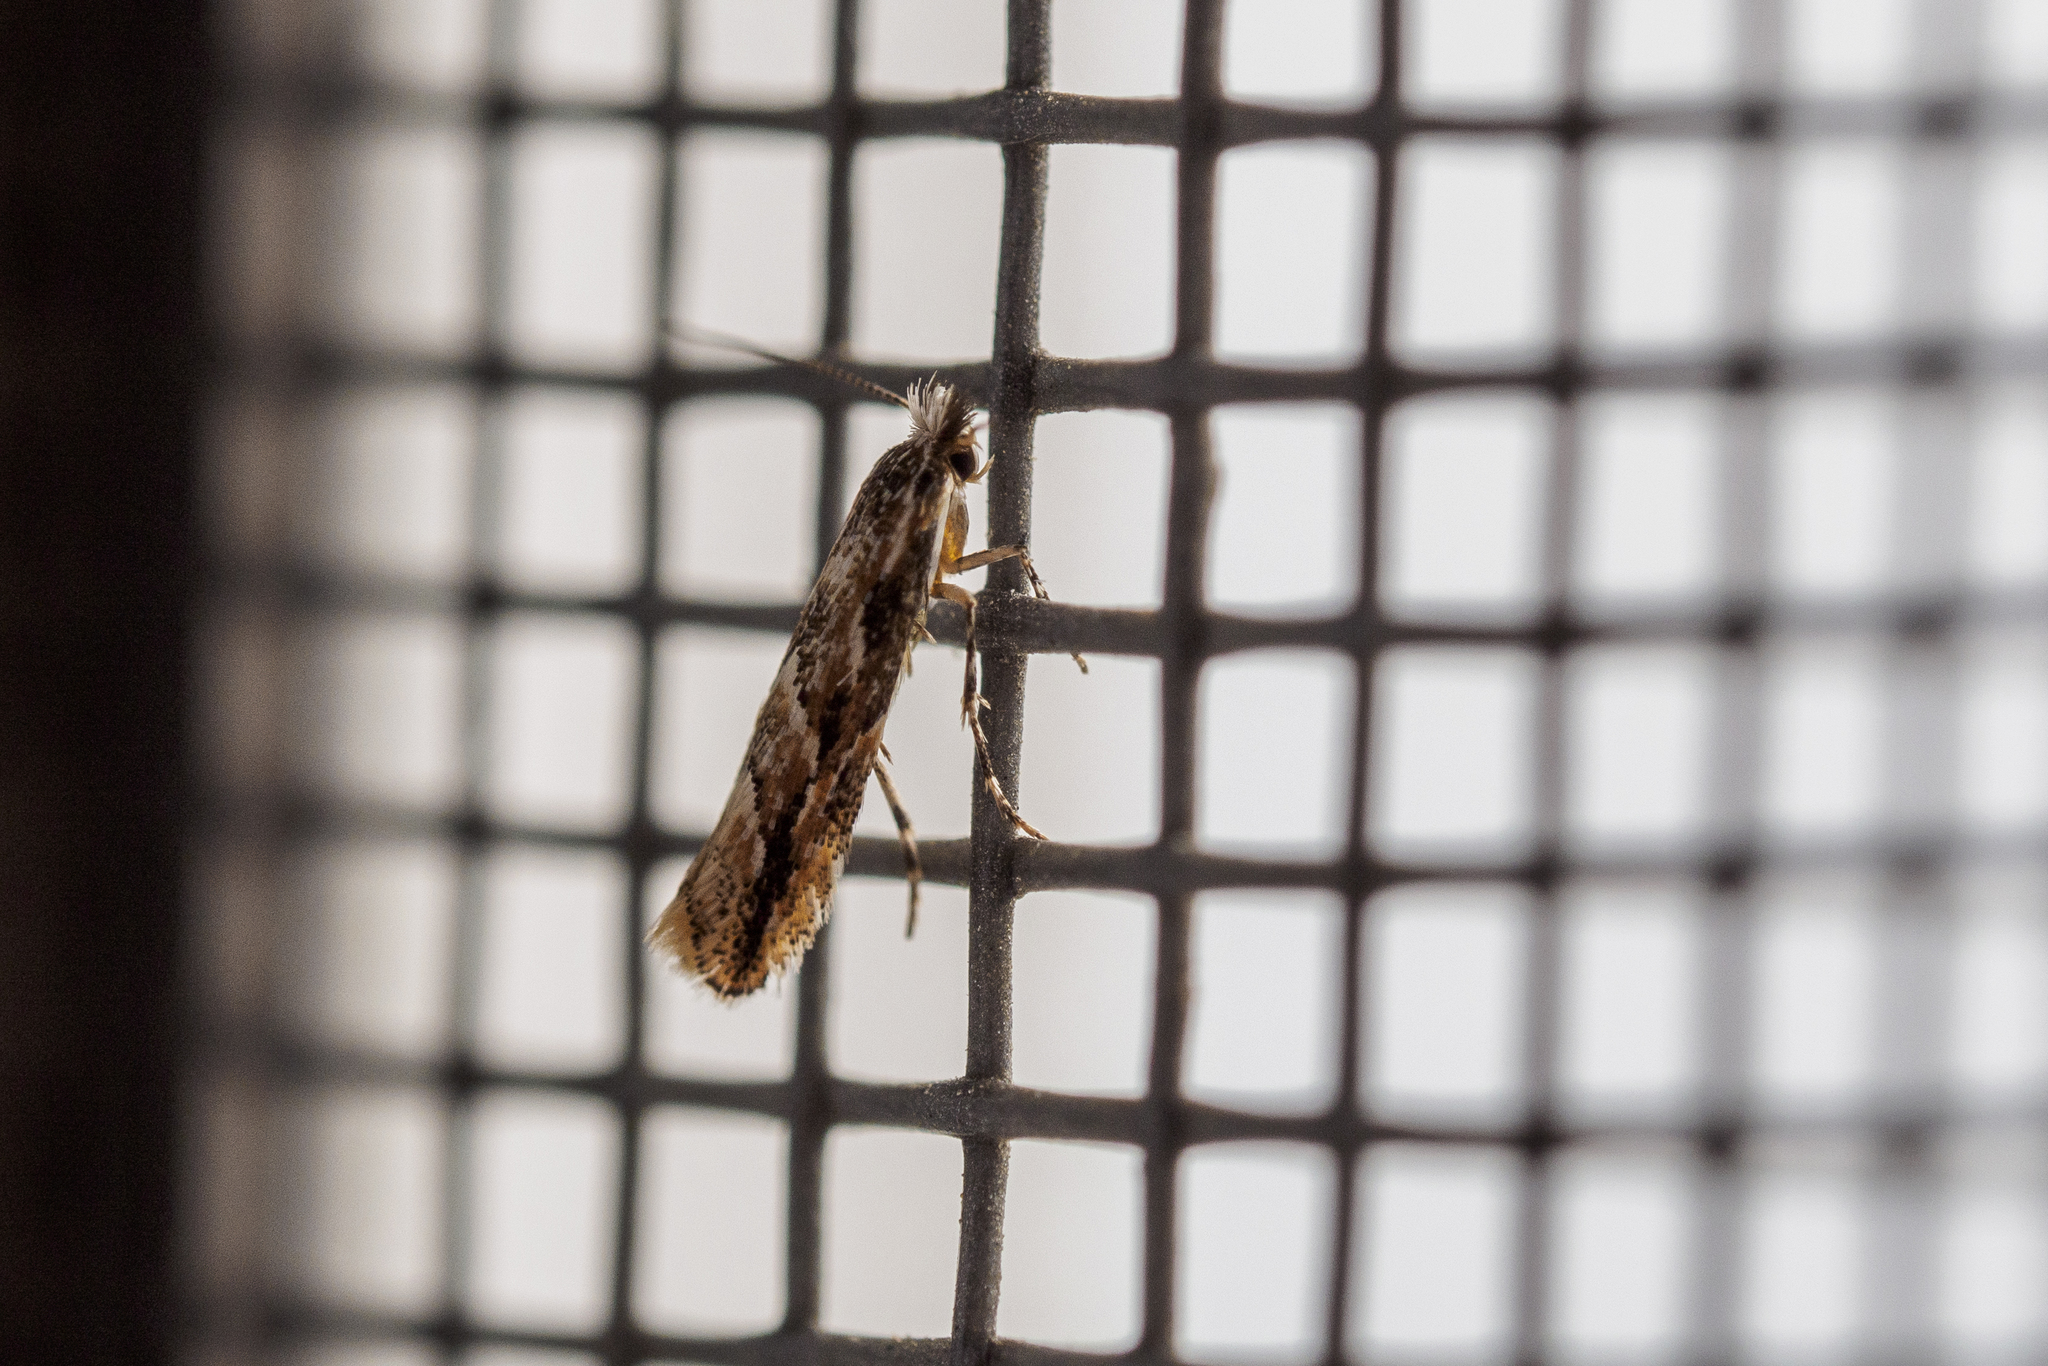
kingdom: Animalia
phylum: Arthropoda
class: Insecta
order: Lepidoptera
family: Gracillariidae
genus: Phyllonorycter
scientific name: Phyllonorycter issikii
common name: Linden midget
